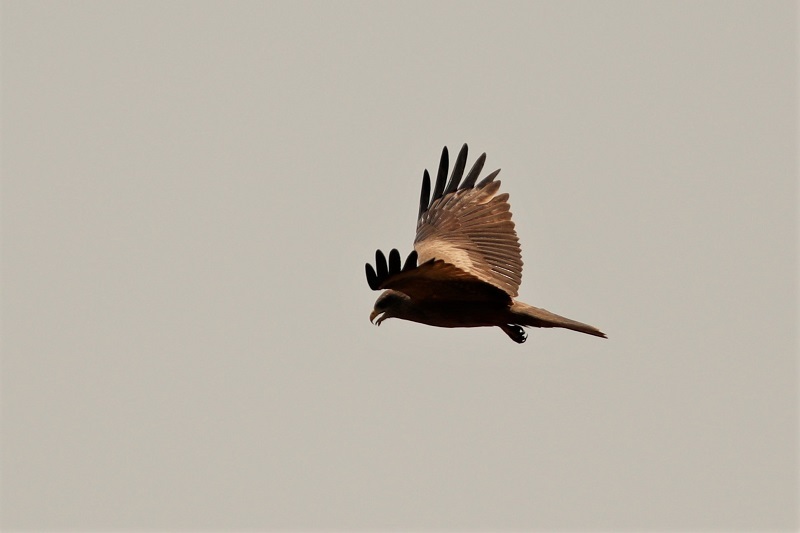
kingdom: Animalia
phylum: Chordata
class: Aves
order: Accipitriformes
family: Accipitridae
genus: Milvus
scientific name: Milvus migrans
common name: Black kite
